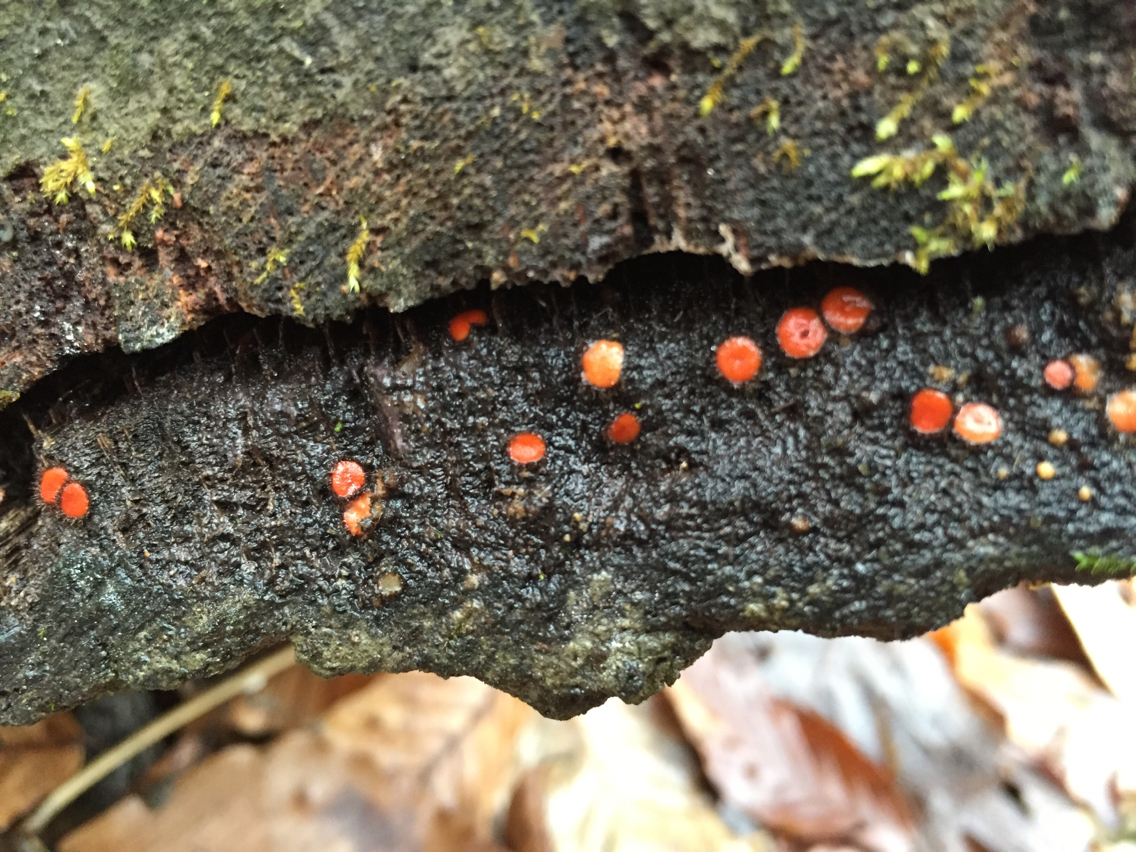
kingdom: Fungi
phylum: Ascomycota
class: Pezizomycetes
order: Pezizales
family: Pyronemataceae
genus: Scutellinia
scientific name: Scutellinia scutellata
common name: Common eyelash
